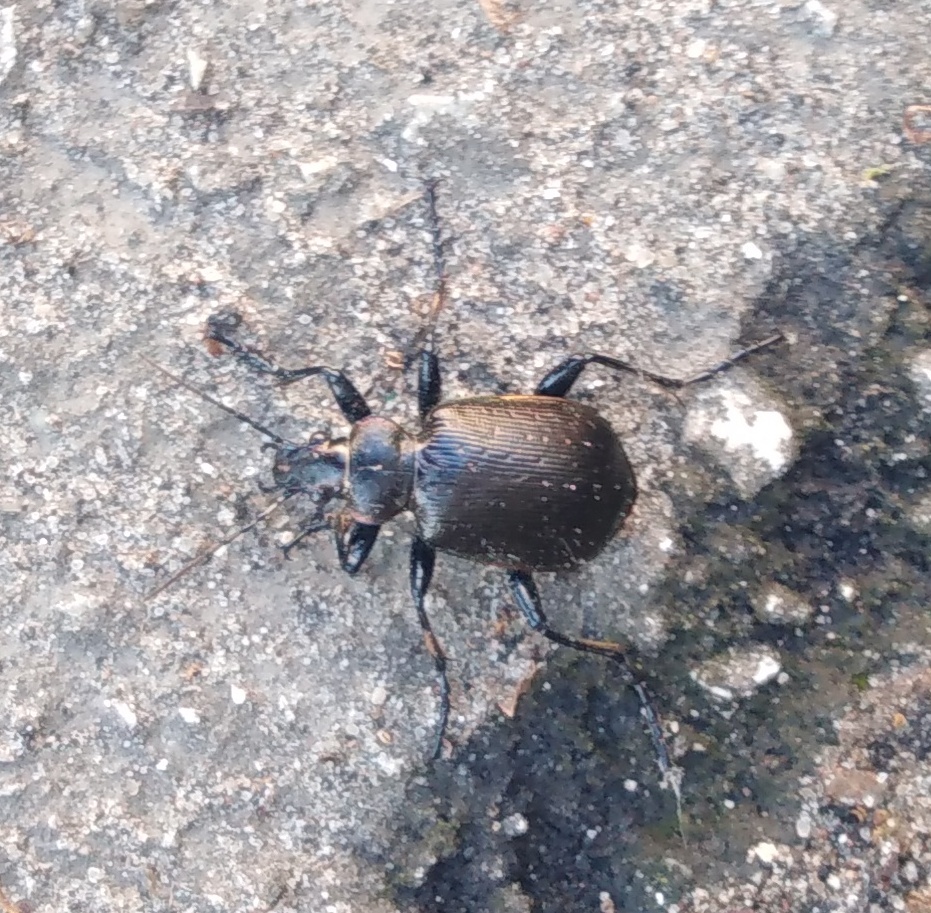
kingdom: Animalia
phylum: Arthropoda
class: Insecta
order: Coleoptera
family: Carabidae
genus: Calosoma
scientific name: Calosoma inquisitor
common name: Caterpillar-hunter
